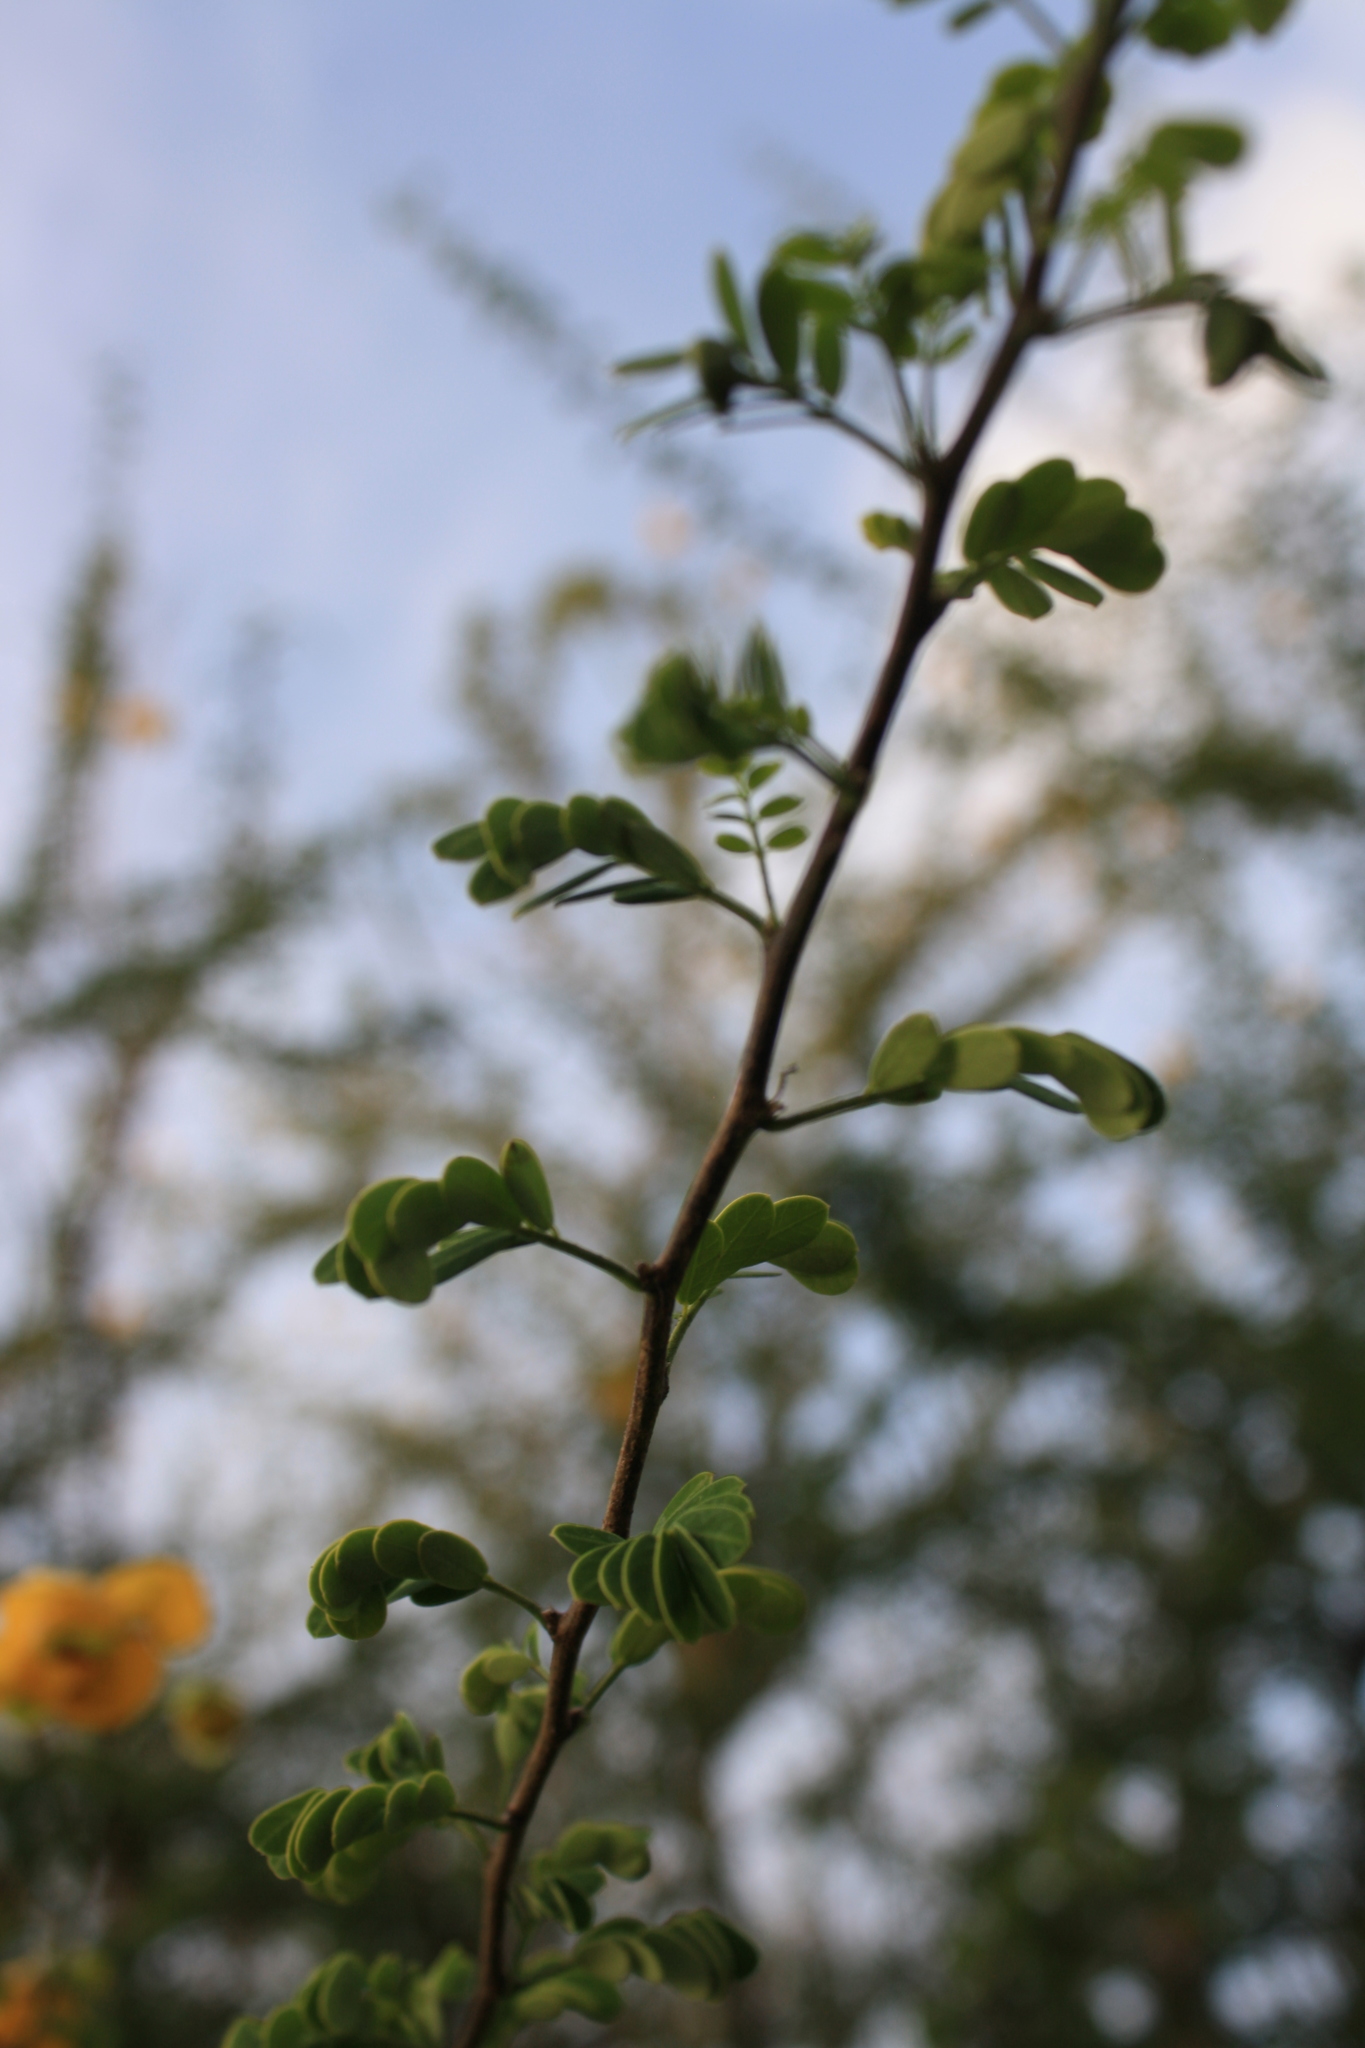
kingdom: Plantae
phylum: Tracheophyta
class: Magnoliopsida
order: Fabales
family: Fabaceae
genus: Senna
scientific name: Senna wislizeni
